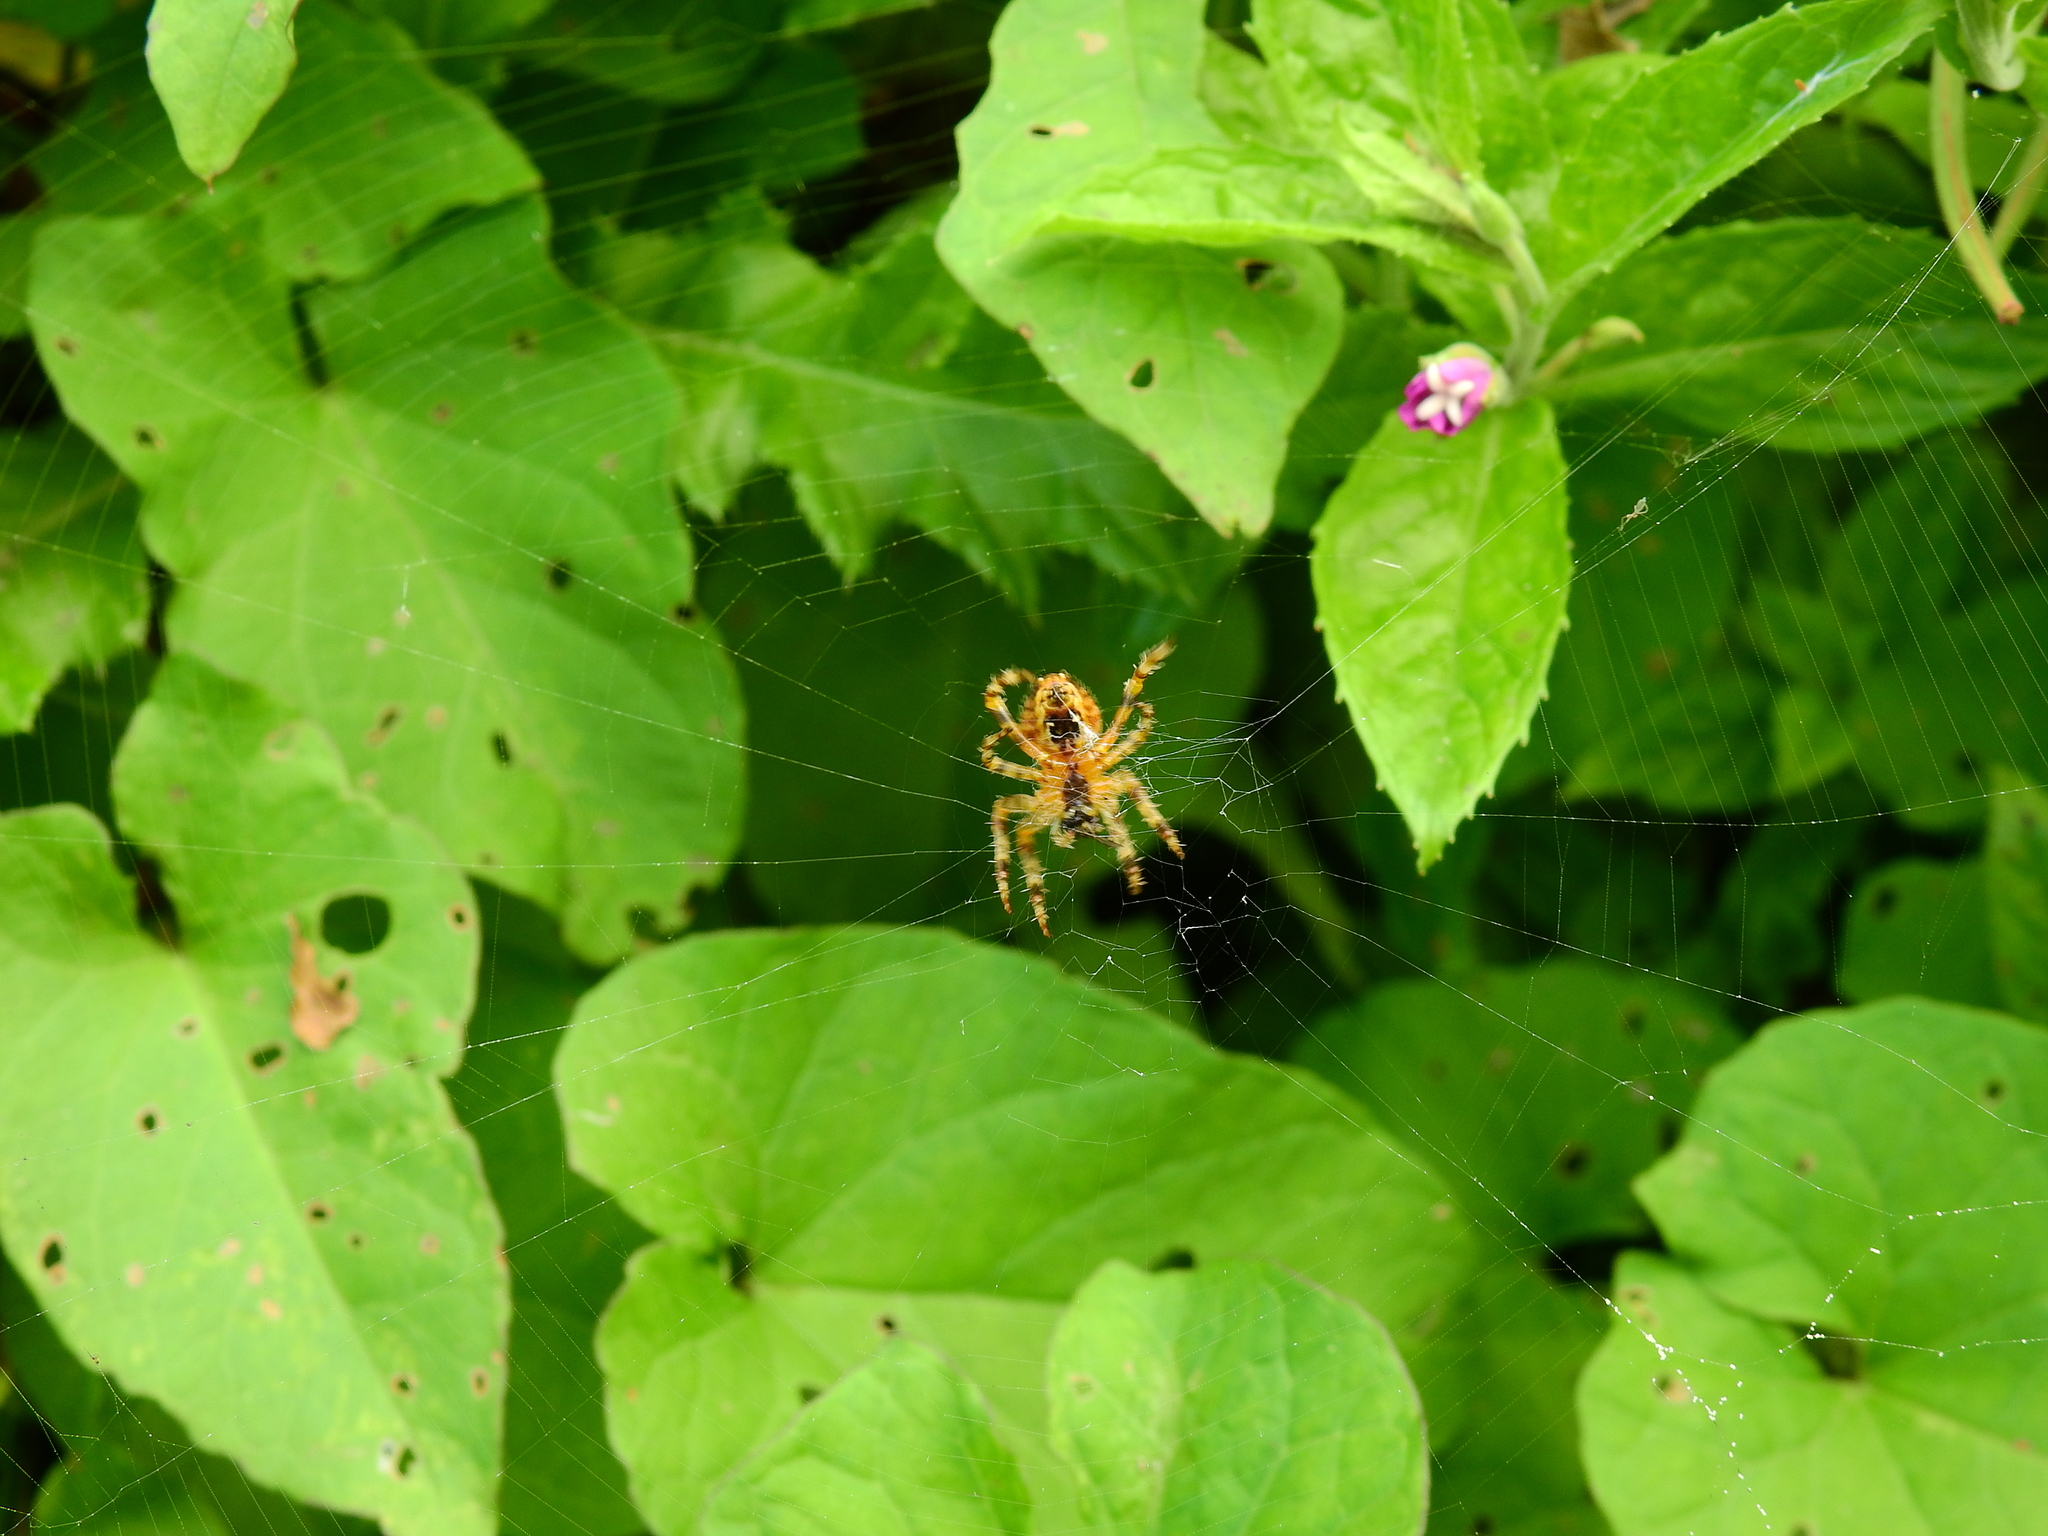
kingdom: Animalia
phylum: Arthropoda
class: Arachnida
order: Araneae
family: Araneidae
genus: Araneus
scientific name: Araneus diadematus
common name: Cross orbweaver
